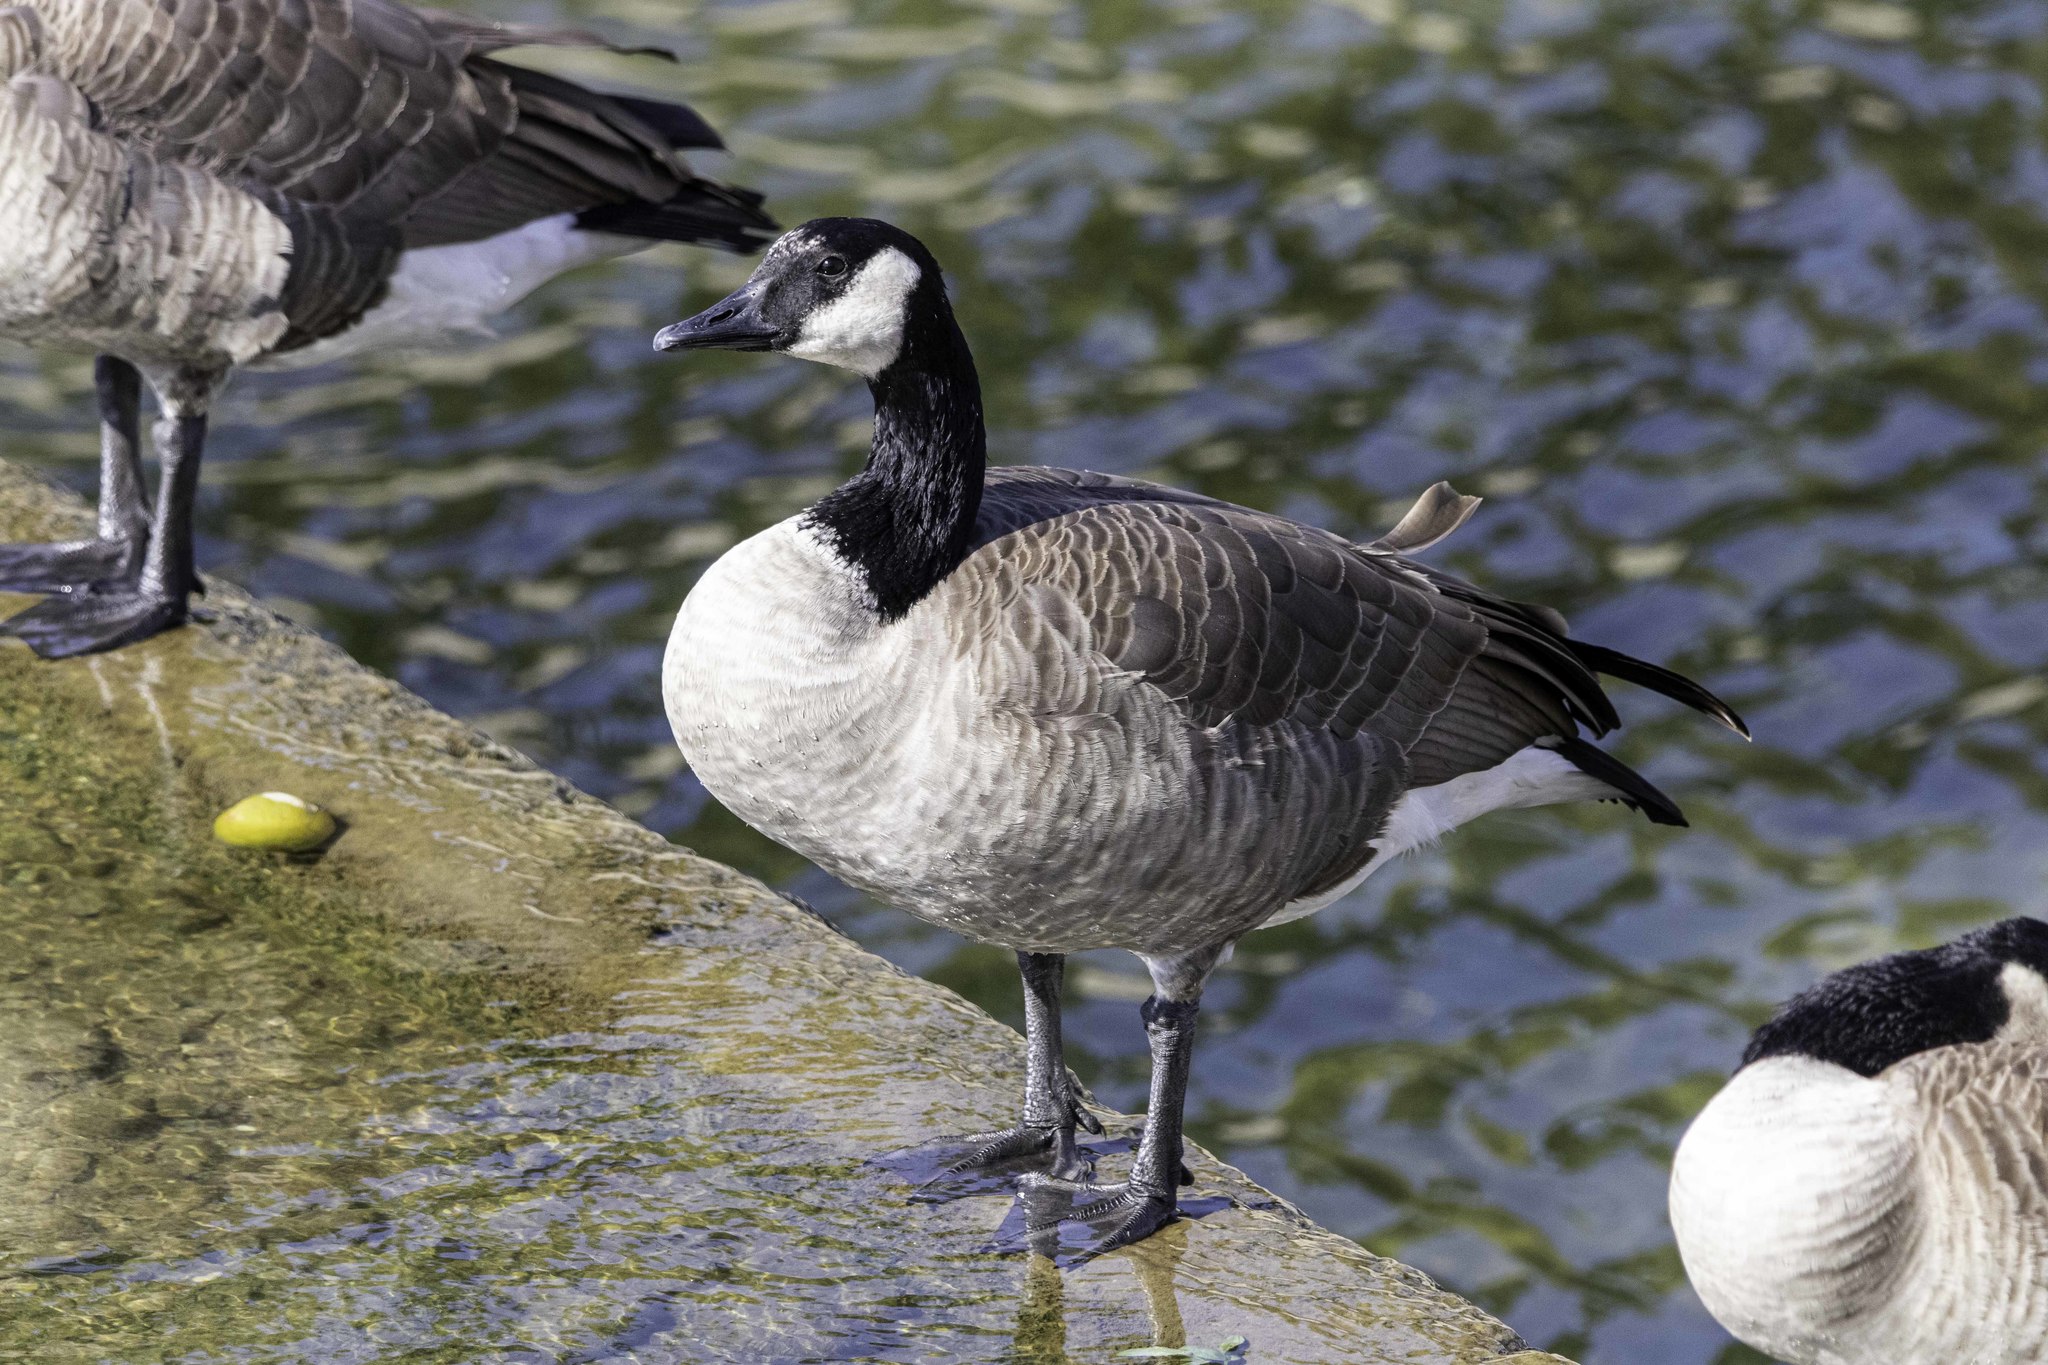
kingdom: Animalia
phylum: Chordata
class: Aves
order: Anseriformes
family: Anatidae
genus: Branta
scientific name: Branta canadensis
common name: Canada goose
